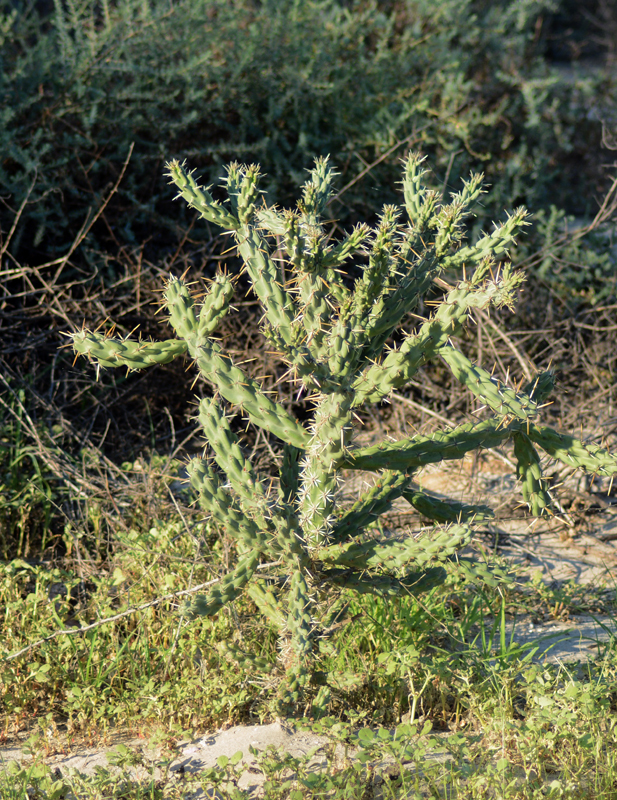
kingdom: Plantae
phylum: Tracheophyta
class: Magnoliopsida
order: Caryophyllales
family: Cactaceae
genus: Cylindropuntia
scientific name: Cylindropuntia cholla
